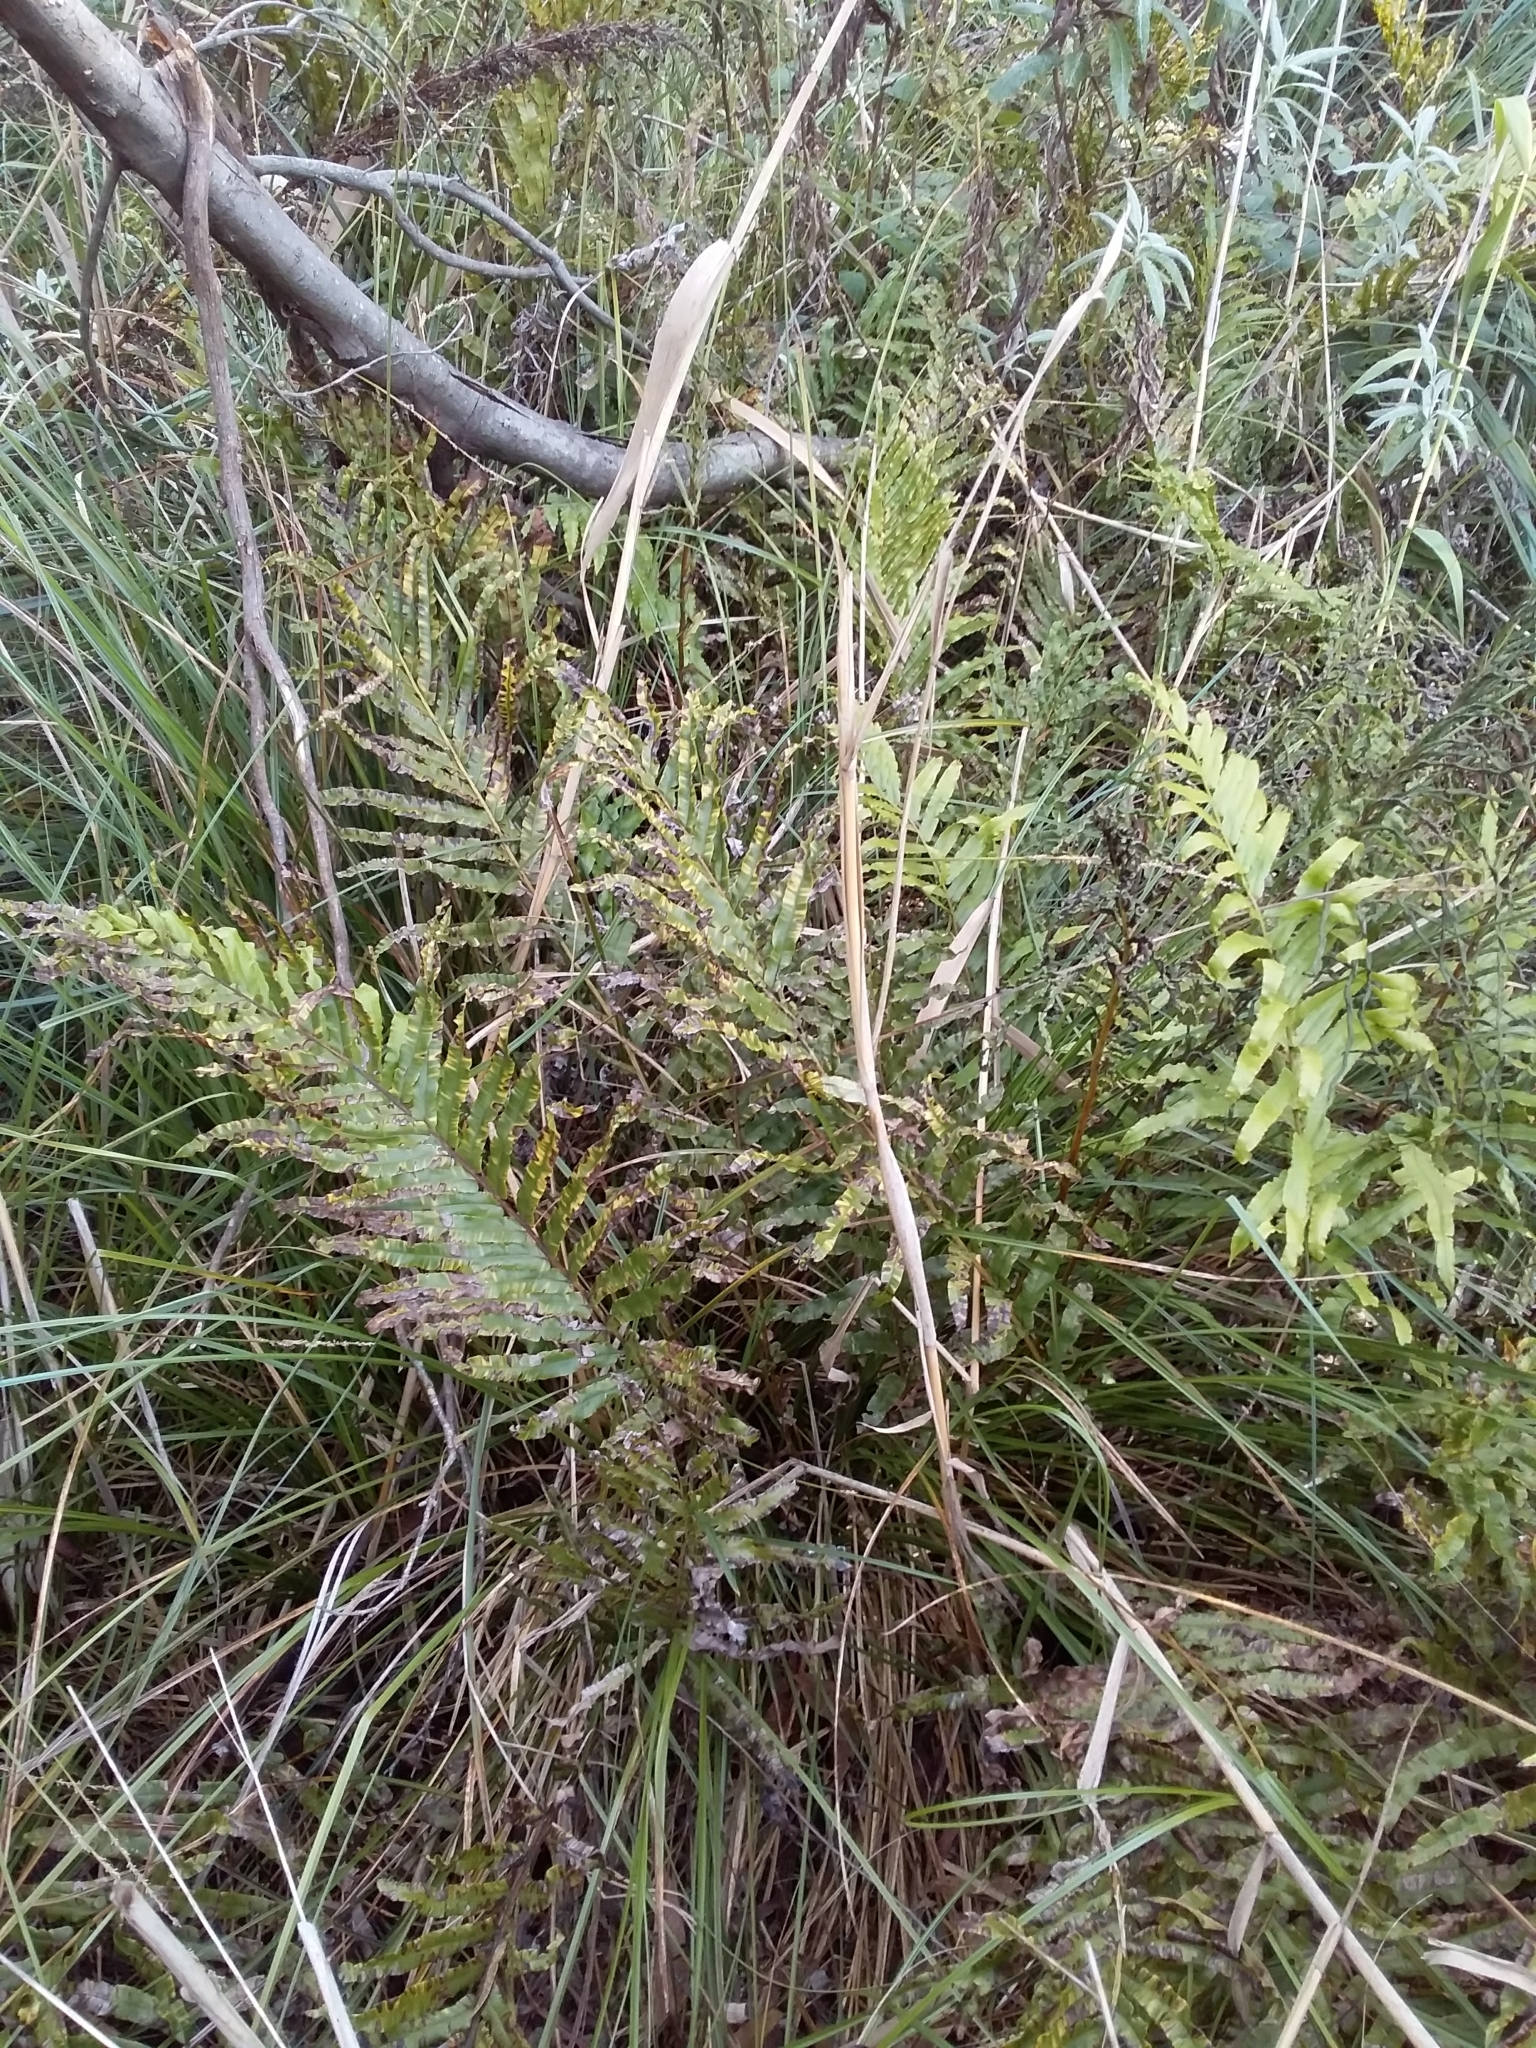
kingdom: Plantae
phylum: Tracheophyta
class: Polypodiopsida
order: Polypodiales
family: Blechnaceae
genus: Parablechnum
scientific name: Parablechnum minus
